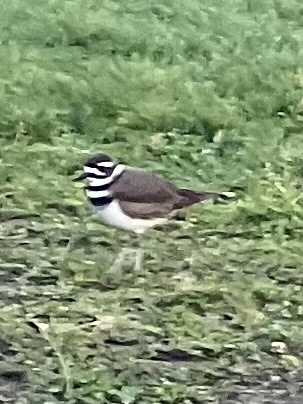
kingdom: Animalia
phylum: Chordata
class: Aves
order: Charadriiformes
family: Charadriidae
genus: Charadrius
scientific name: Charadrius vociferus
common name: Killdeer
